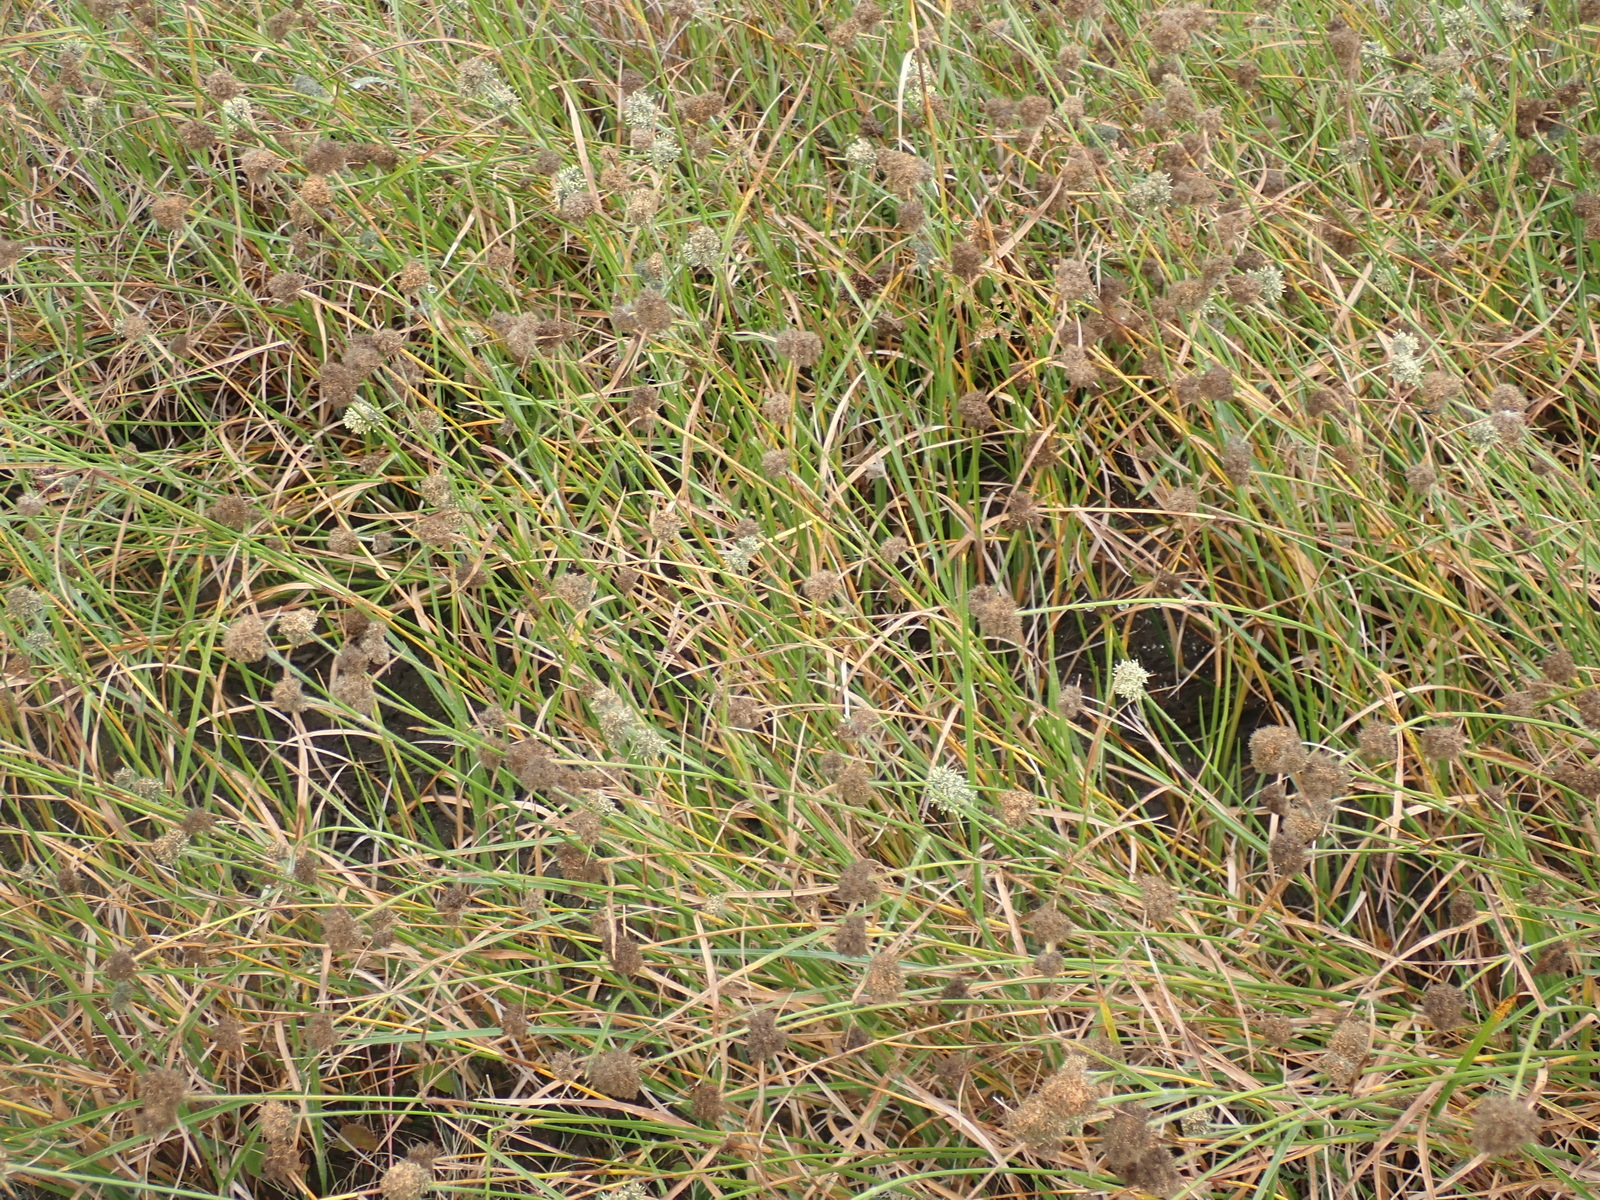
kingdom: Plantae
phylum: Tracheophyta
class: Liliopsida
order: Poales
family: Cyperaceae
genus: Fuirena
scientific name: Fuirena hirsuta
